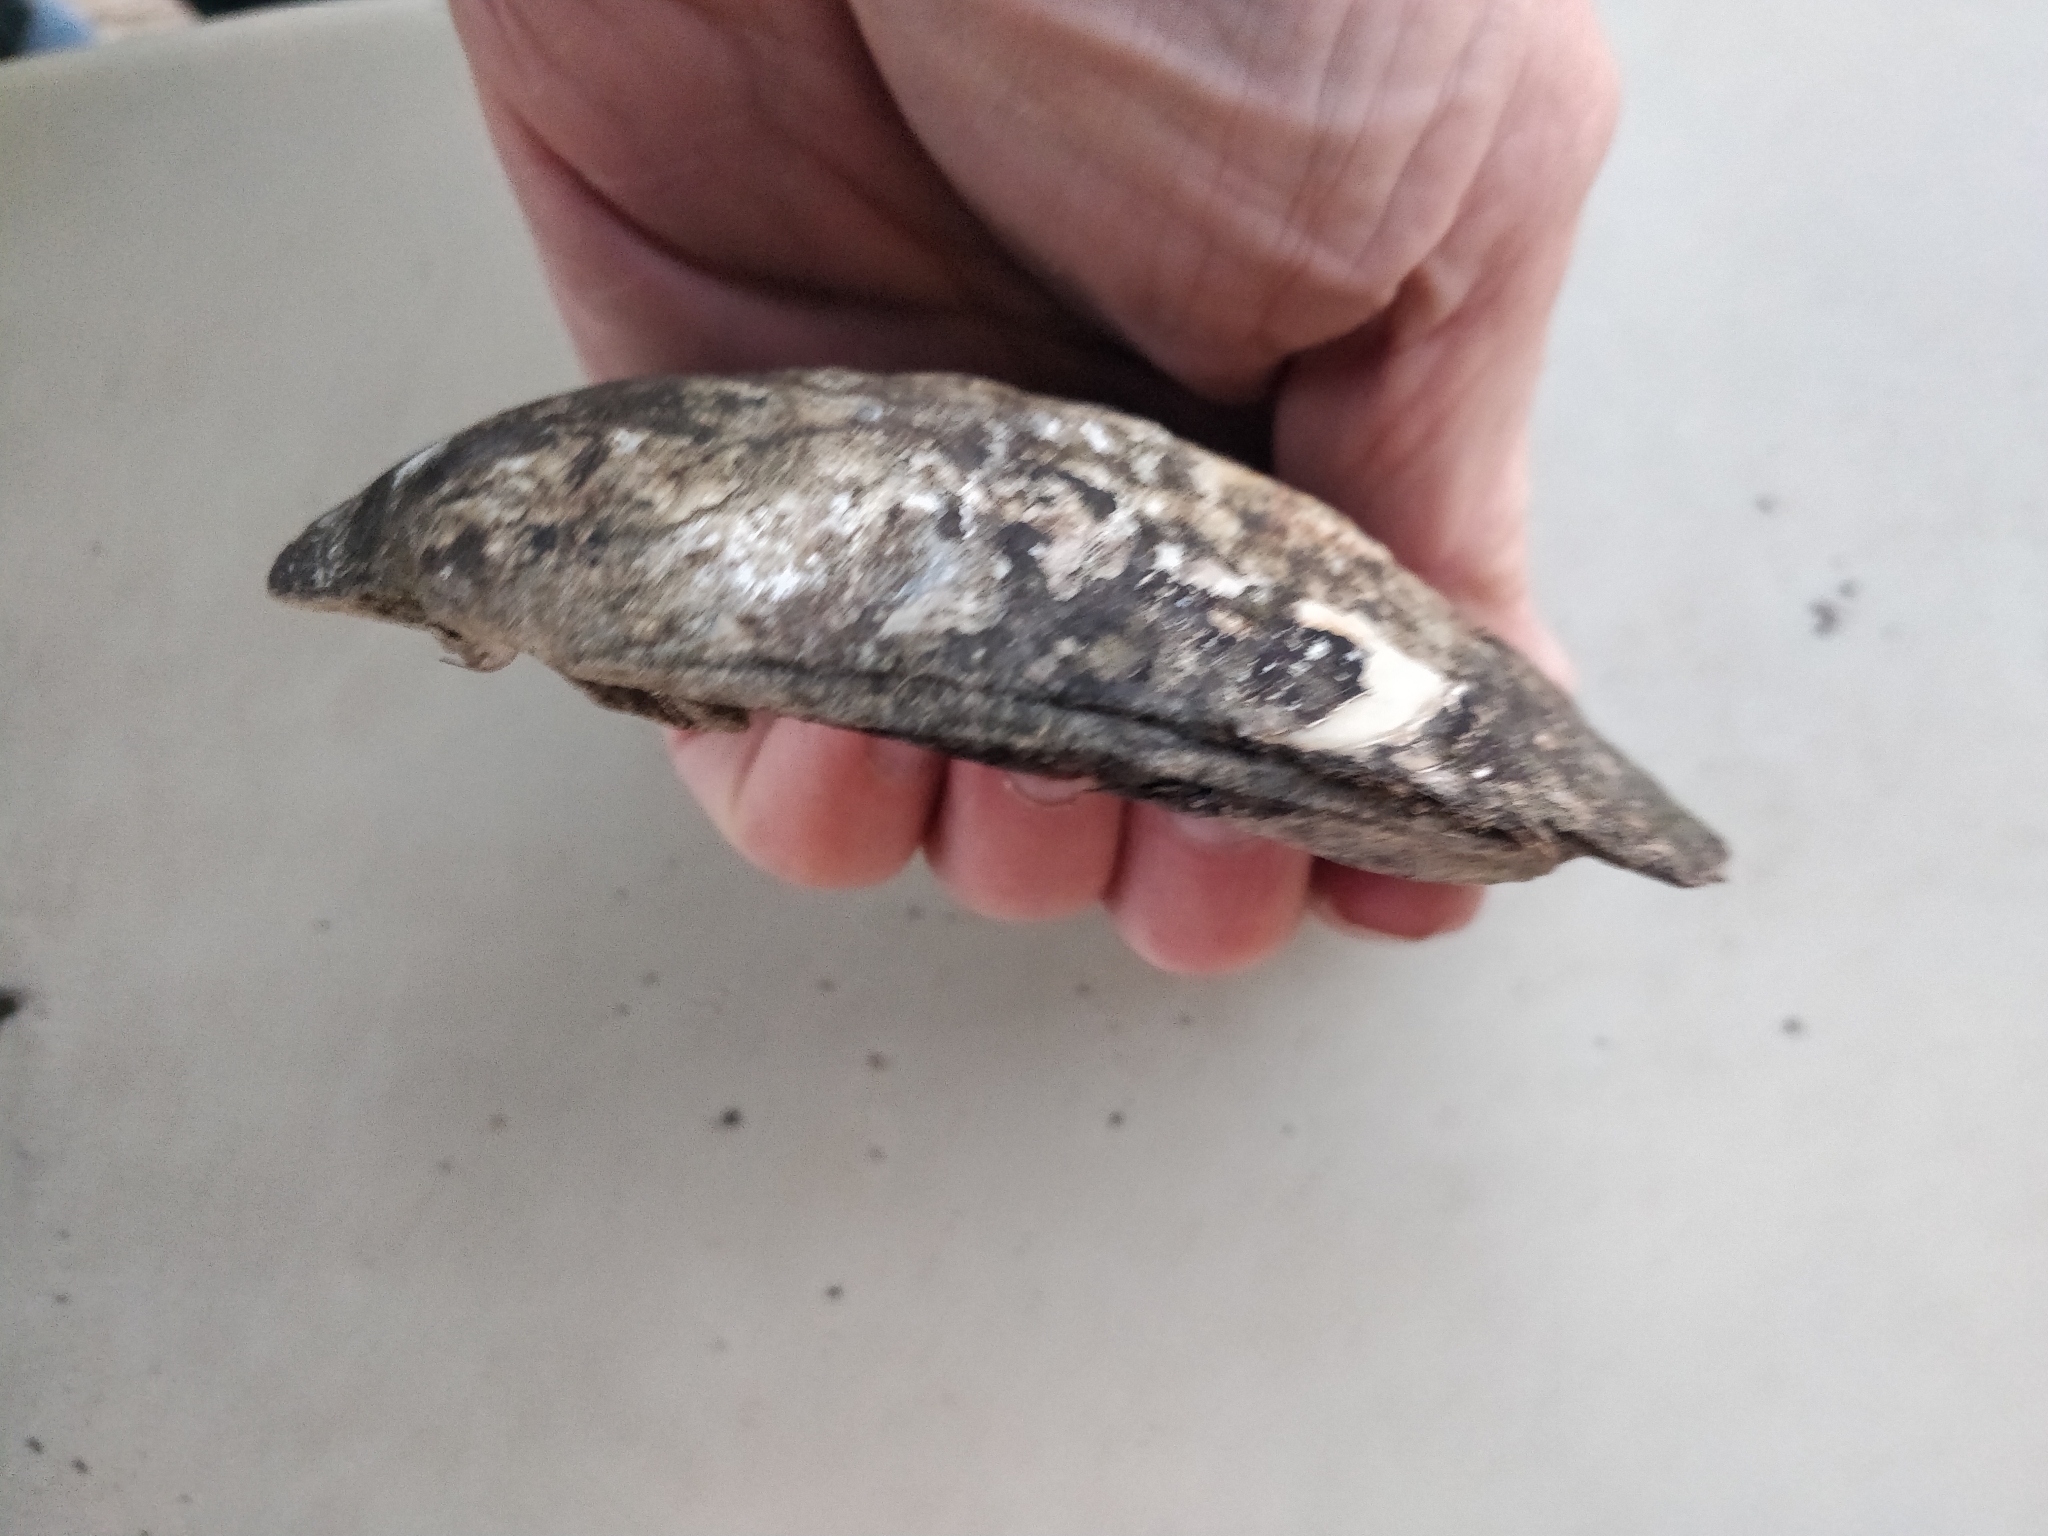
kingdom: Animalia
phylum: Mollusca
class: Bivalvia
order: Unionida
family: Unionidae
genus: Amblema
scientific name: Amblema plicata
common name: Threeridge
